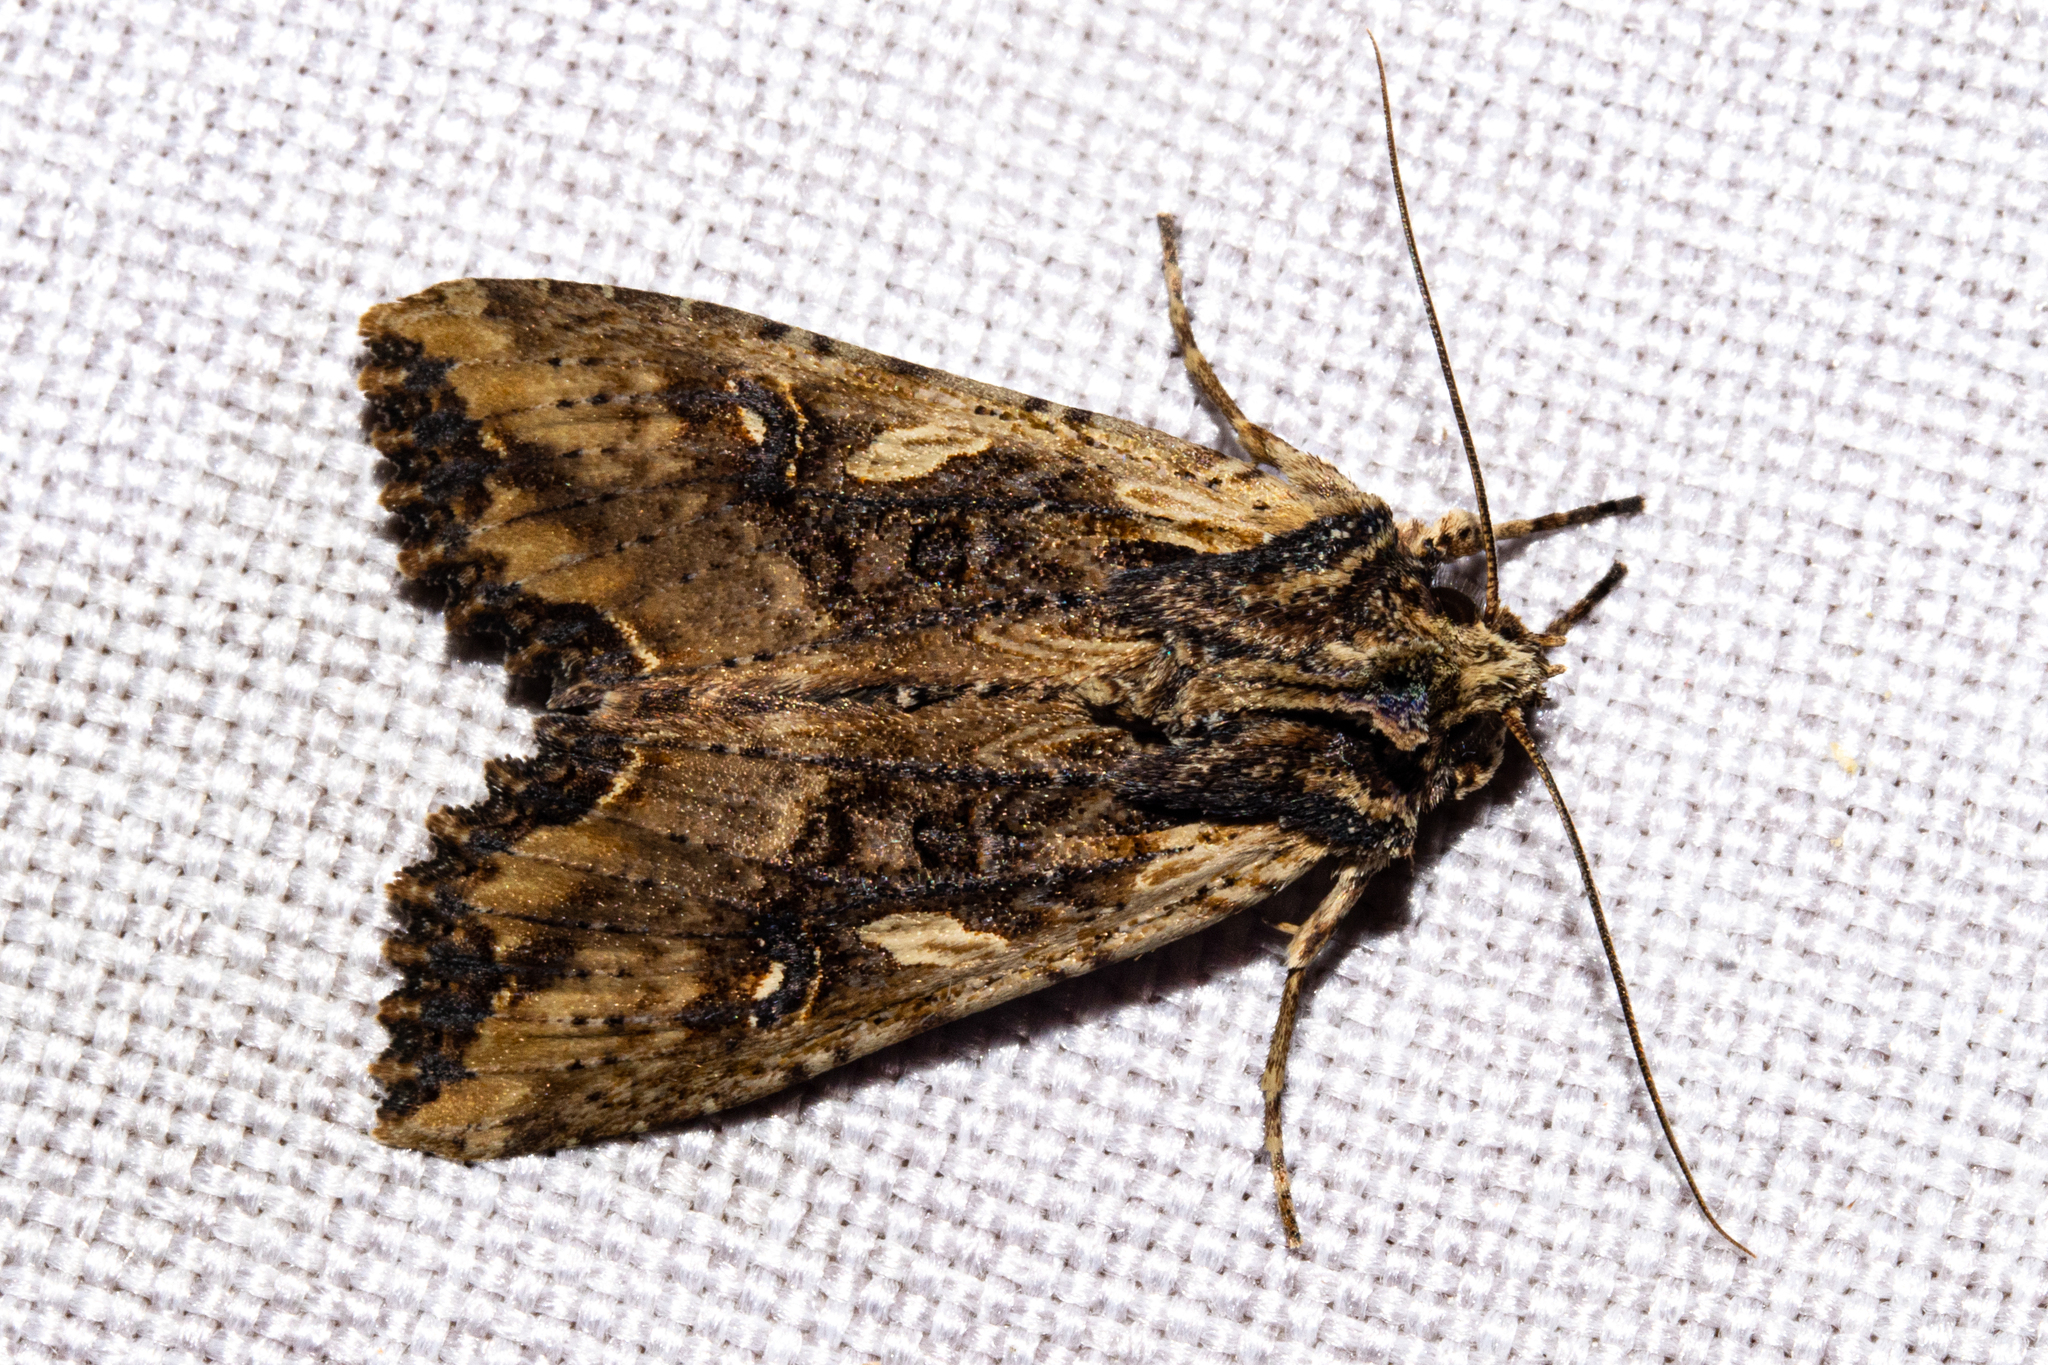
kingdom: Animalia
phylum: Arthropoda
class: Insecta
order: Lepidoptera
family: Noctuidae
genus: Meterana
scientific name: Meterana stipata
